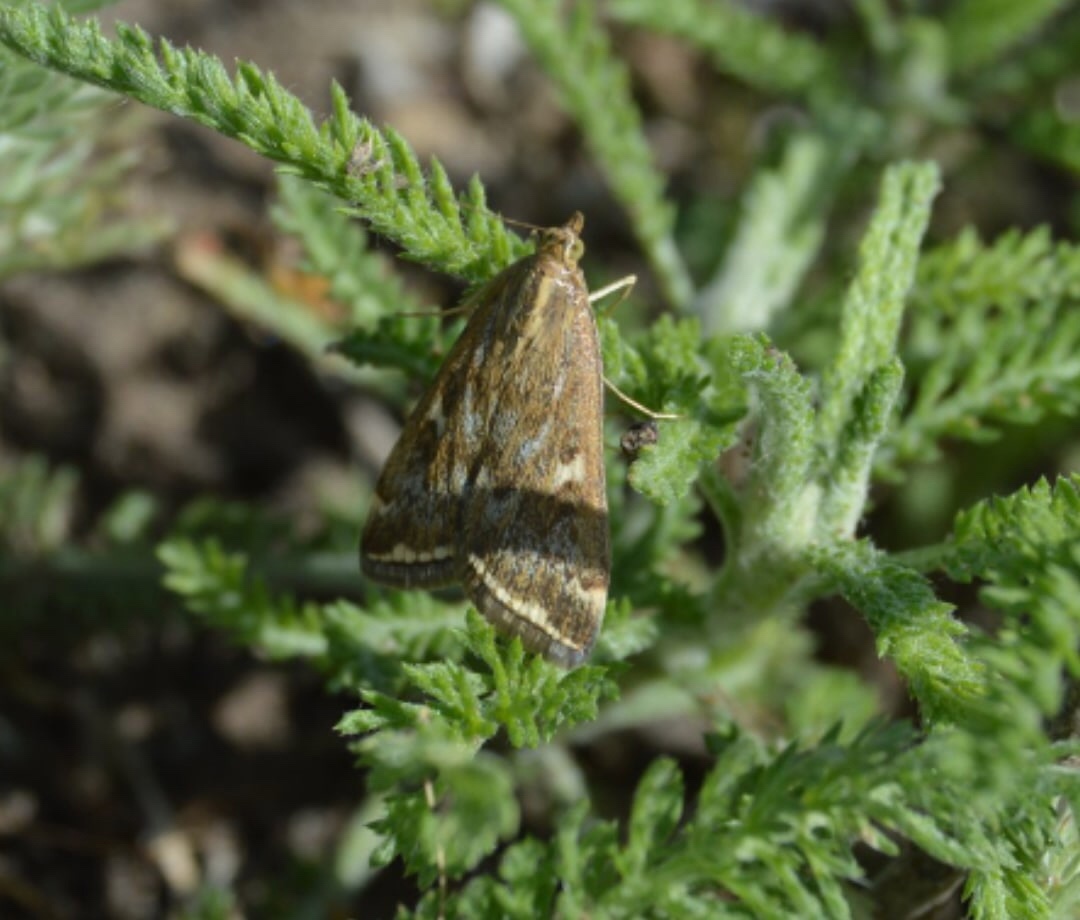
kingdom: Animalia
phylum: Arthropoda
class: Insecta
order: Lepidoptera
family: Crambidae
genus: Loxostege
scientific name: Loxostege sticticalis
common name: Crambid moth
